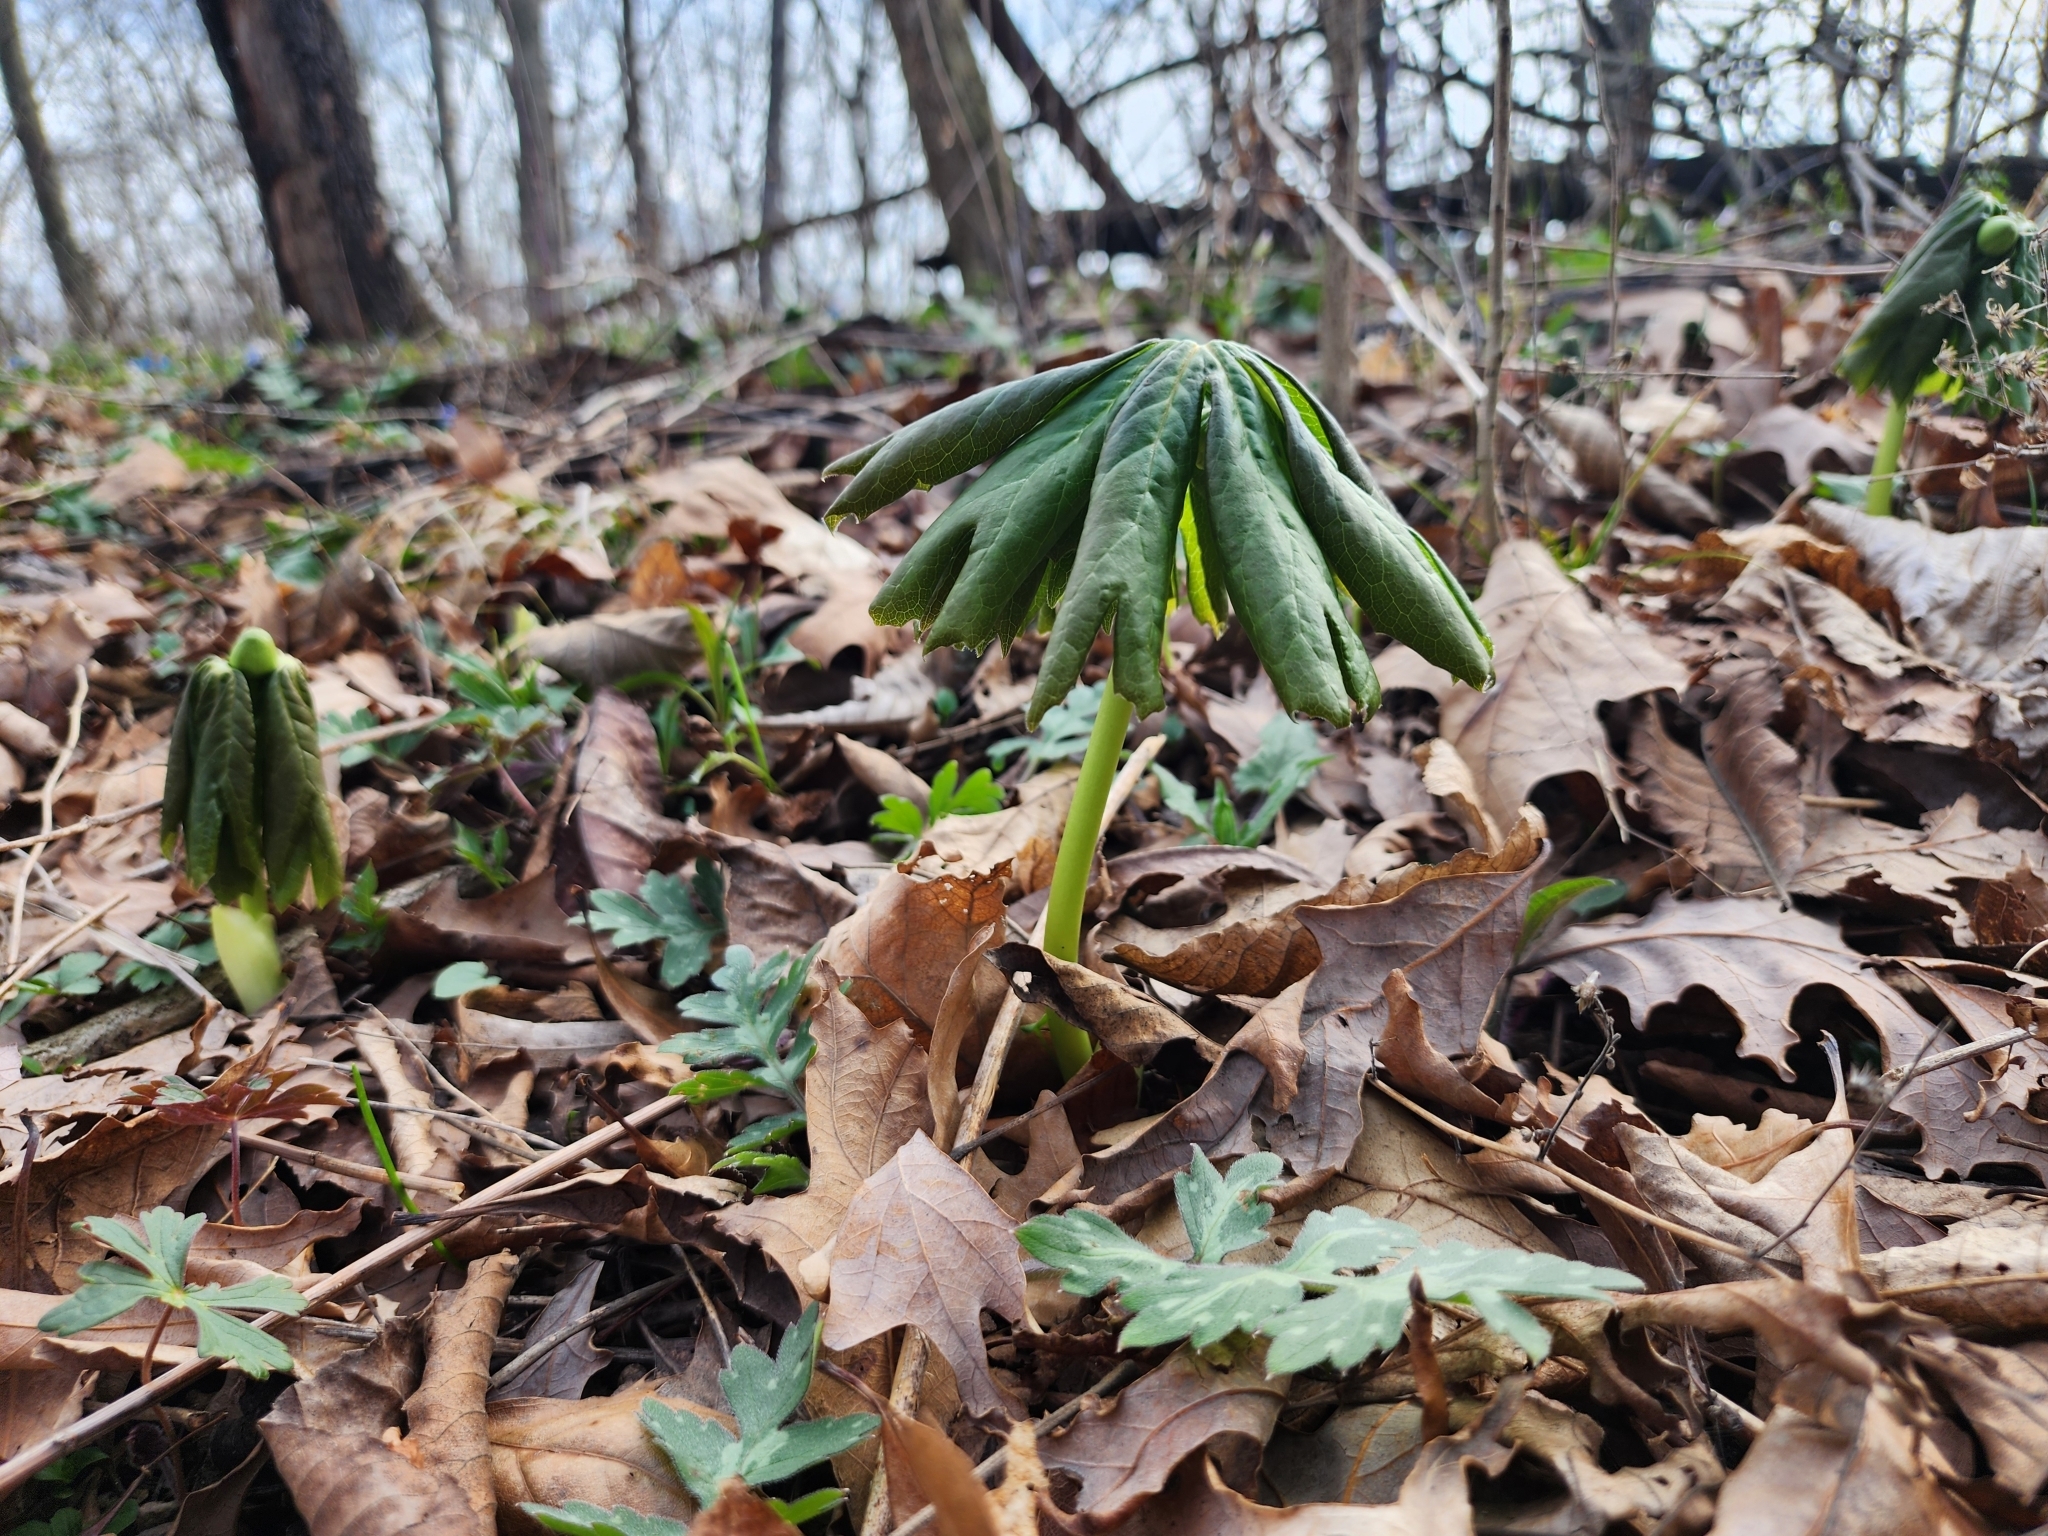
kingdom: Plantae
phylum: Tracheophyta
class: Magnoliopsida
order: Ranunculales
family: Berberidaceae
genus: Podophyllum
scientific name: Podophyllum peltatum
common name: Wild mandrake
